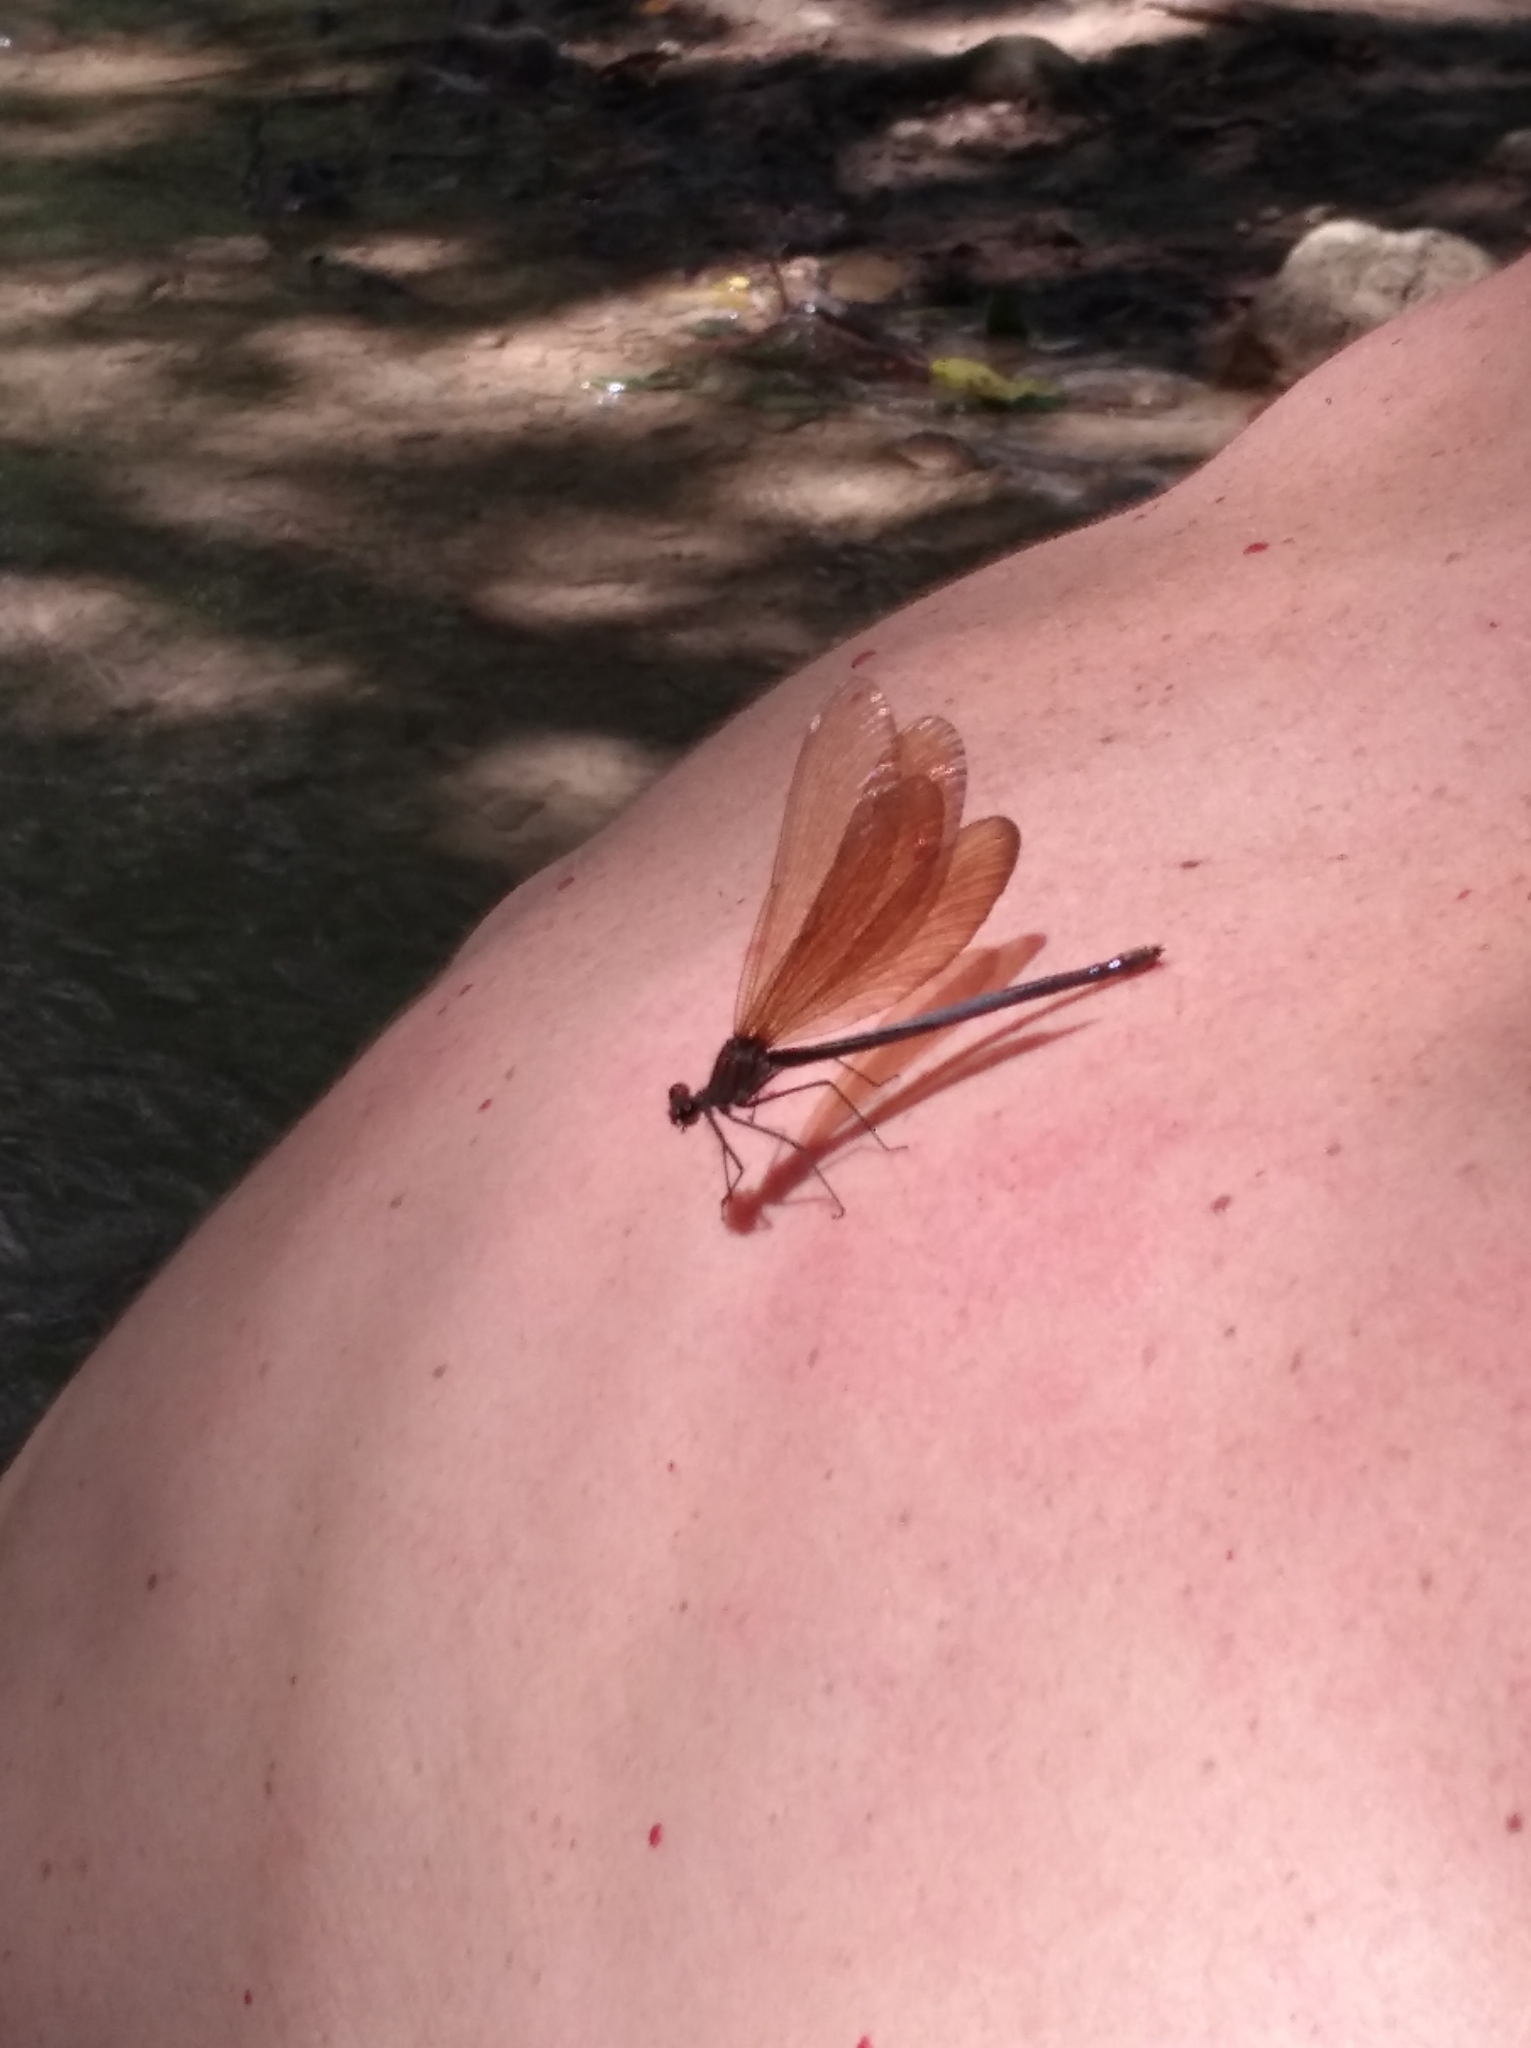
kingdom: Animalia
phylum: Arthropoda
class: Insecta
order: Odonata
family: Calopterygidae
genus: Calopteryx
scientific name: Calopteryx virgo
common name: Beautiful demoiselle
